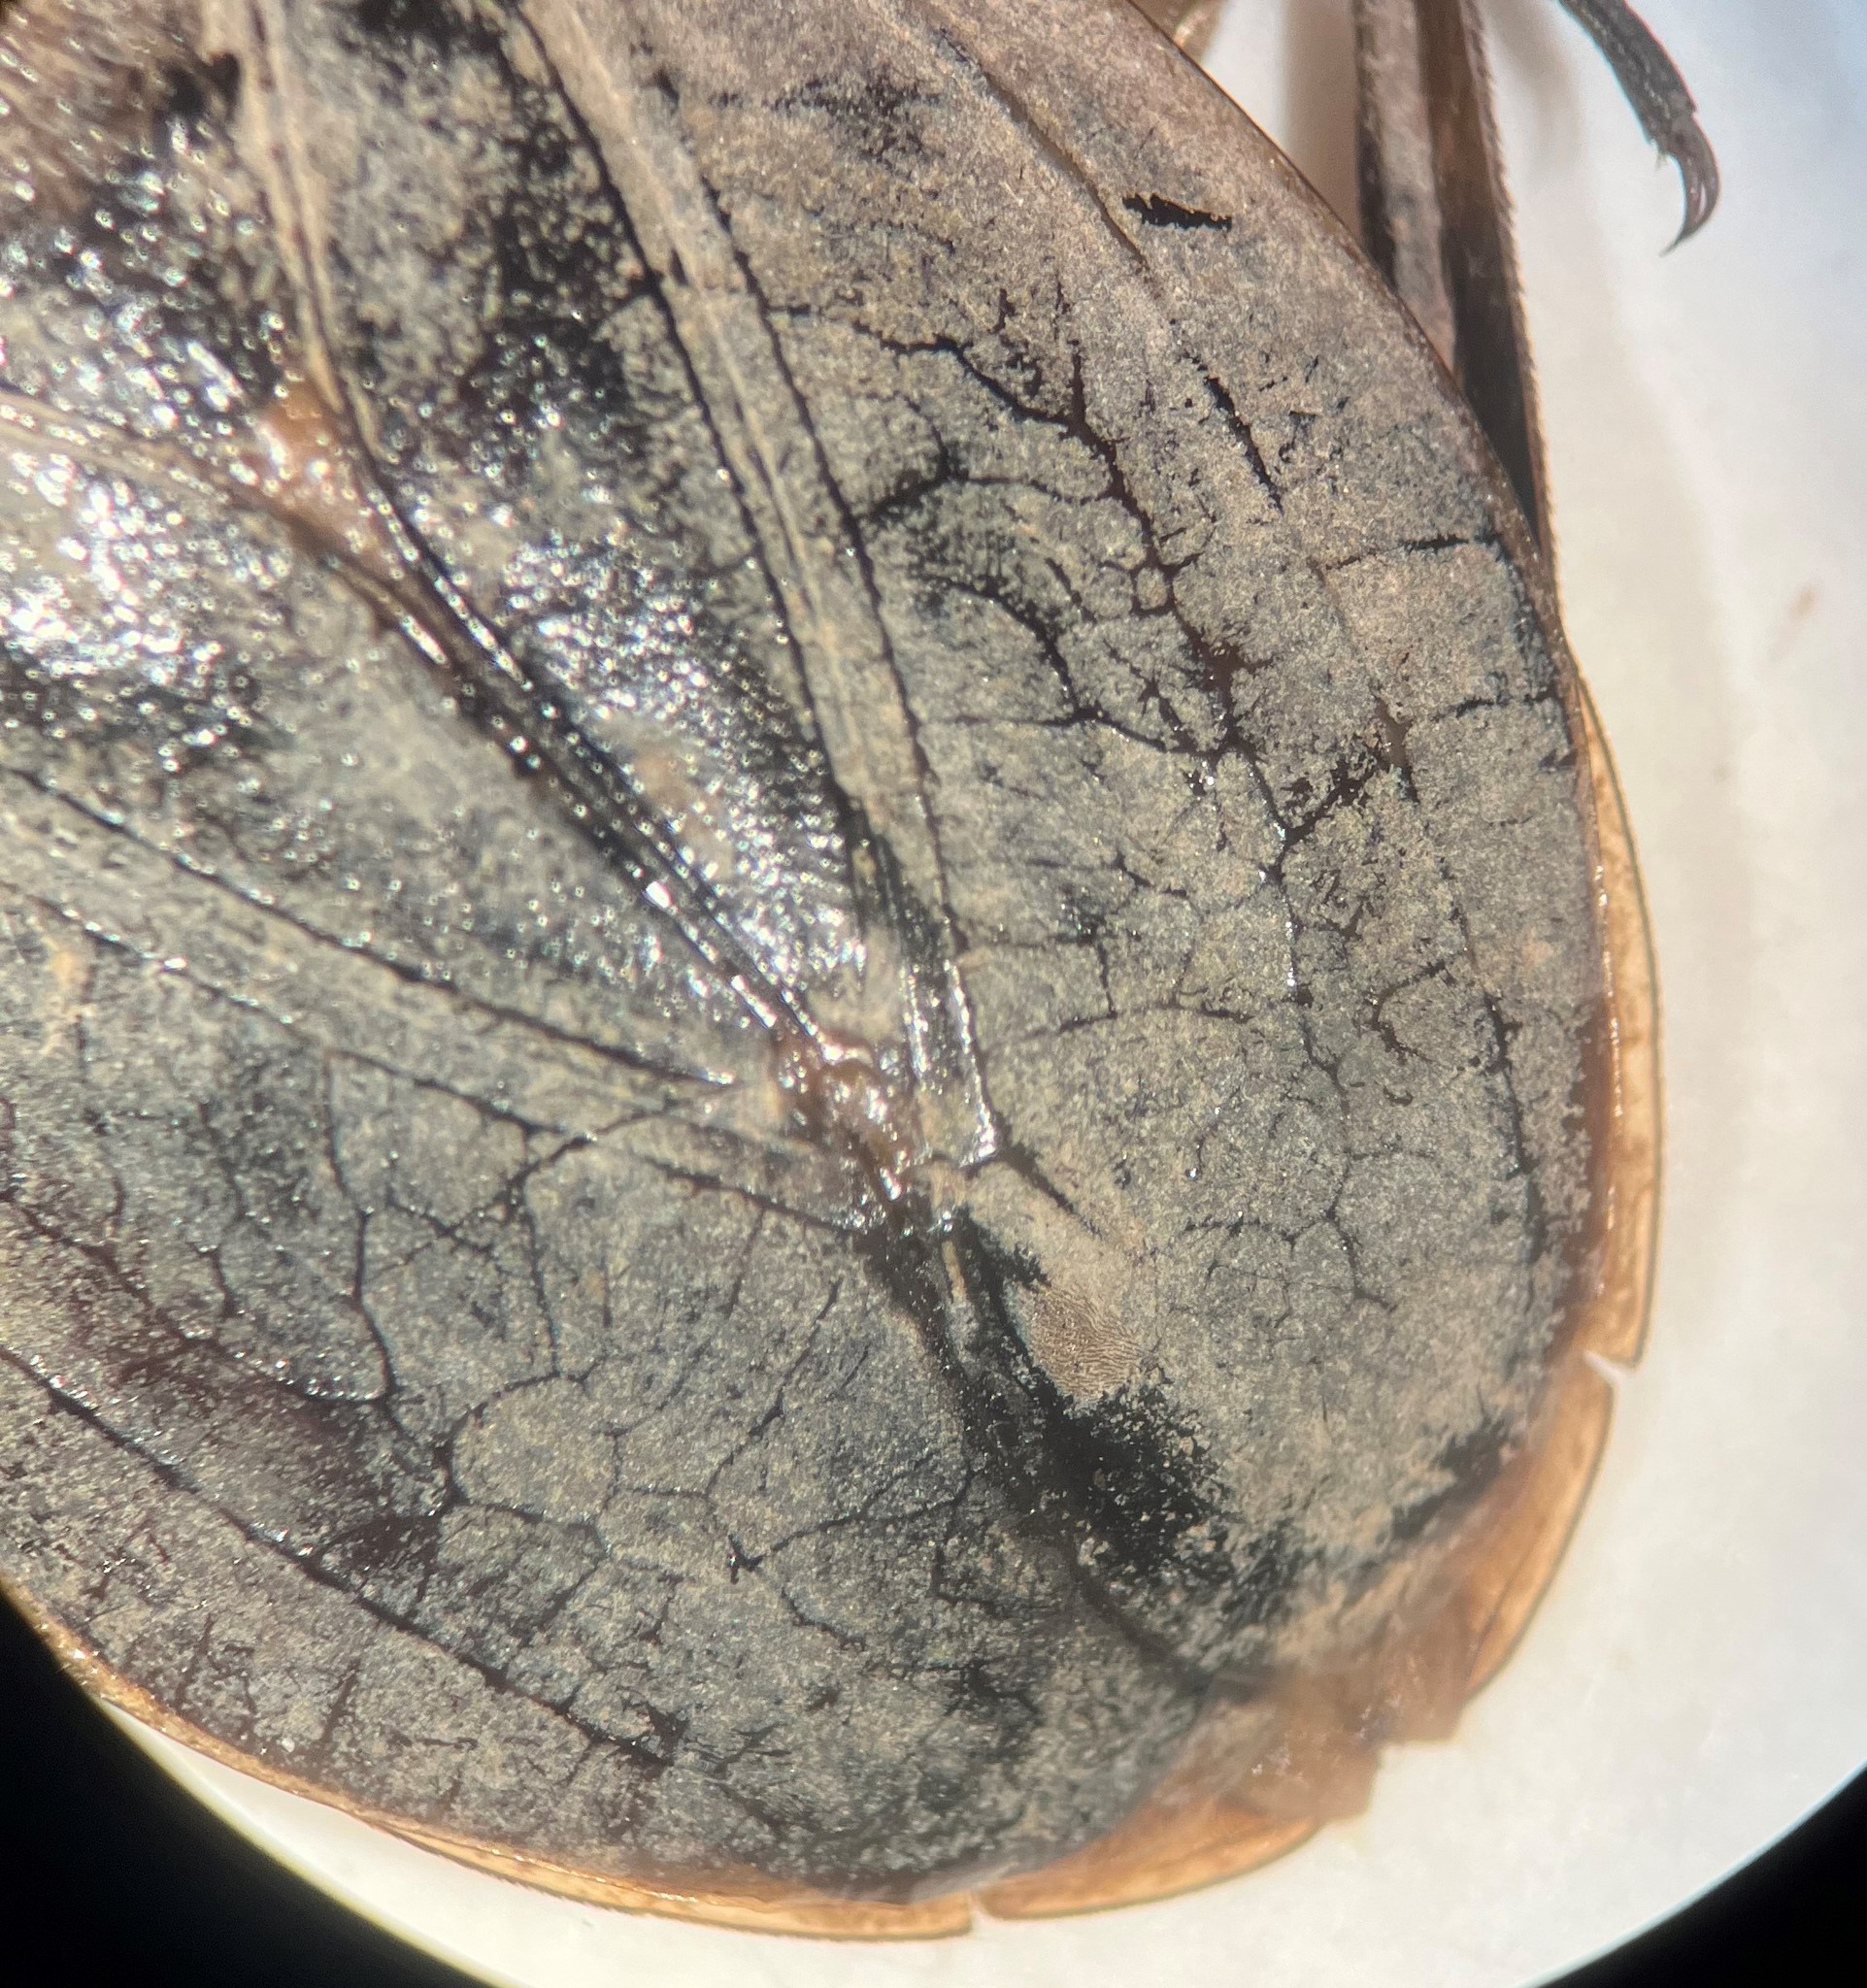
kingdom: Animalia
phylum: Arthropoda
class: Insecta
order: Hemiptera
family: Belostomatidae
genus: Abedus
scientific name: Abedus breviceps
